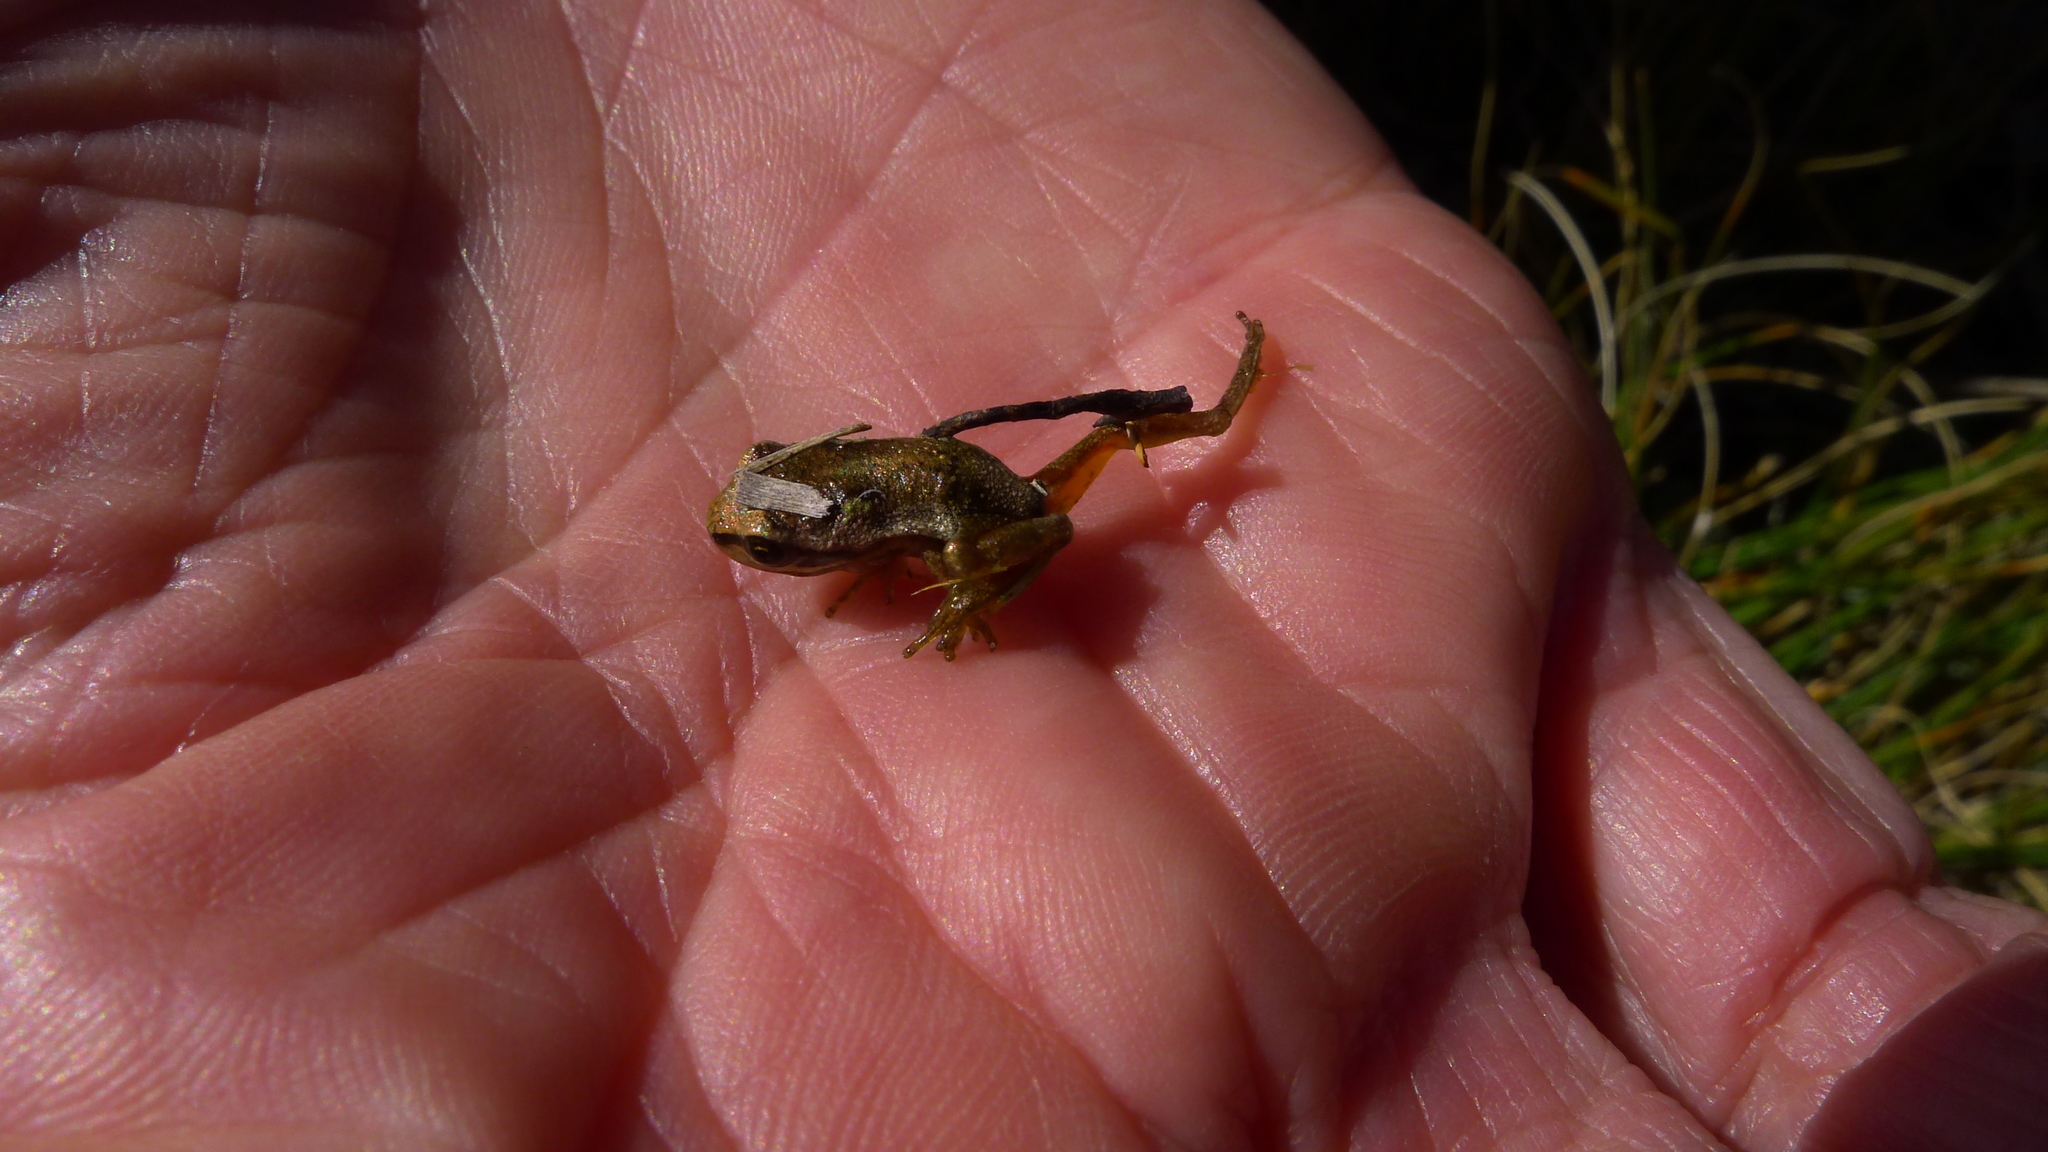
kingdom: Animalia
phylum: Chordata
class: Amphibia
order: Anura
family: Pelodryadidae
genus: Litoria
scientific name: Litoria ewingii
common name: Southern brown tree frog
